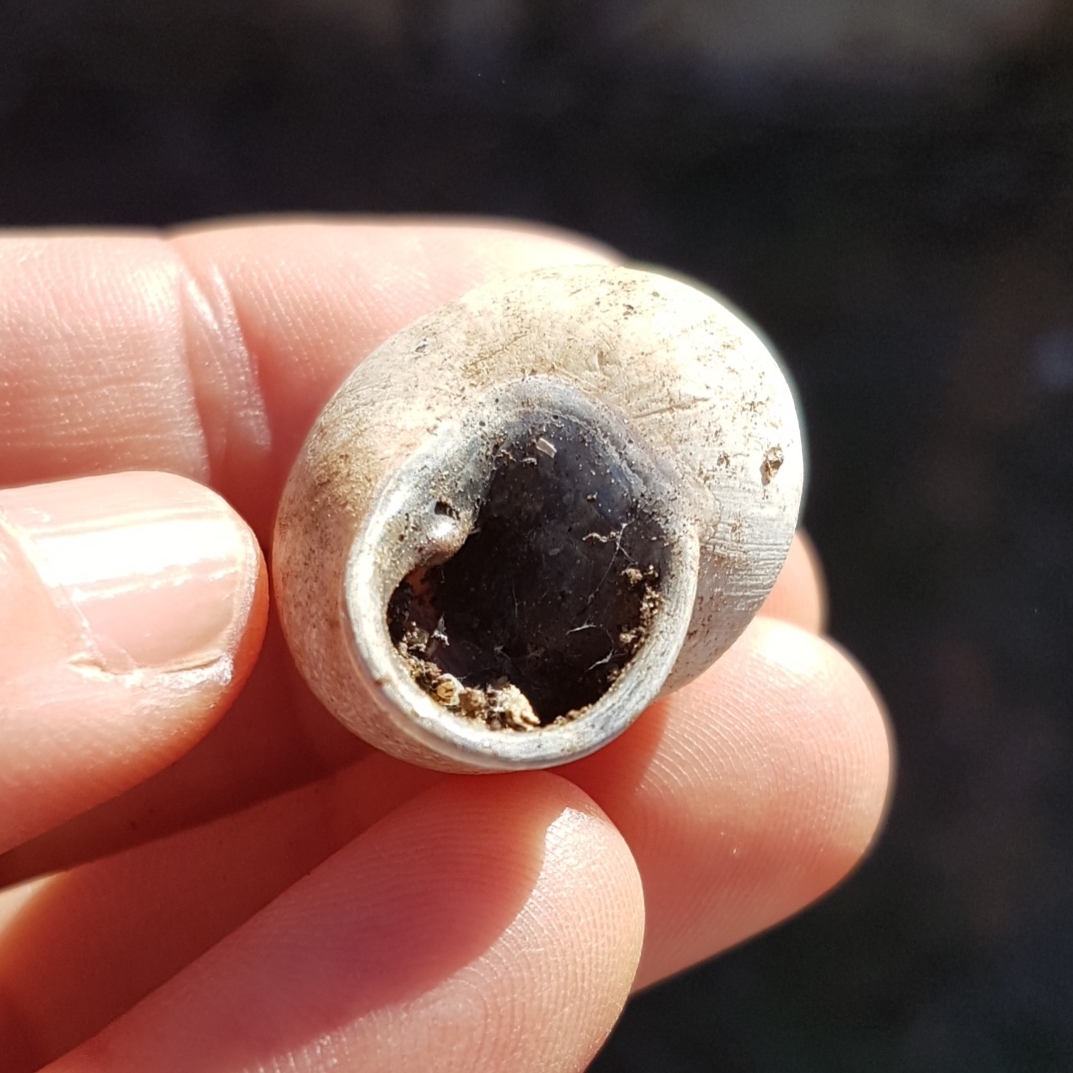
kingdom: Animalia
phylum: Mollusca
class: Gastropoda
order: Stylommatophora
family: Helicidae
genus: Otala
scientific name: Otala lactea
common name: Milk snail
